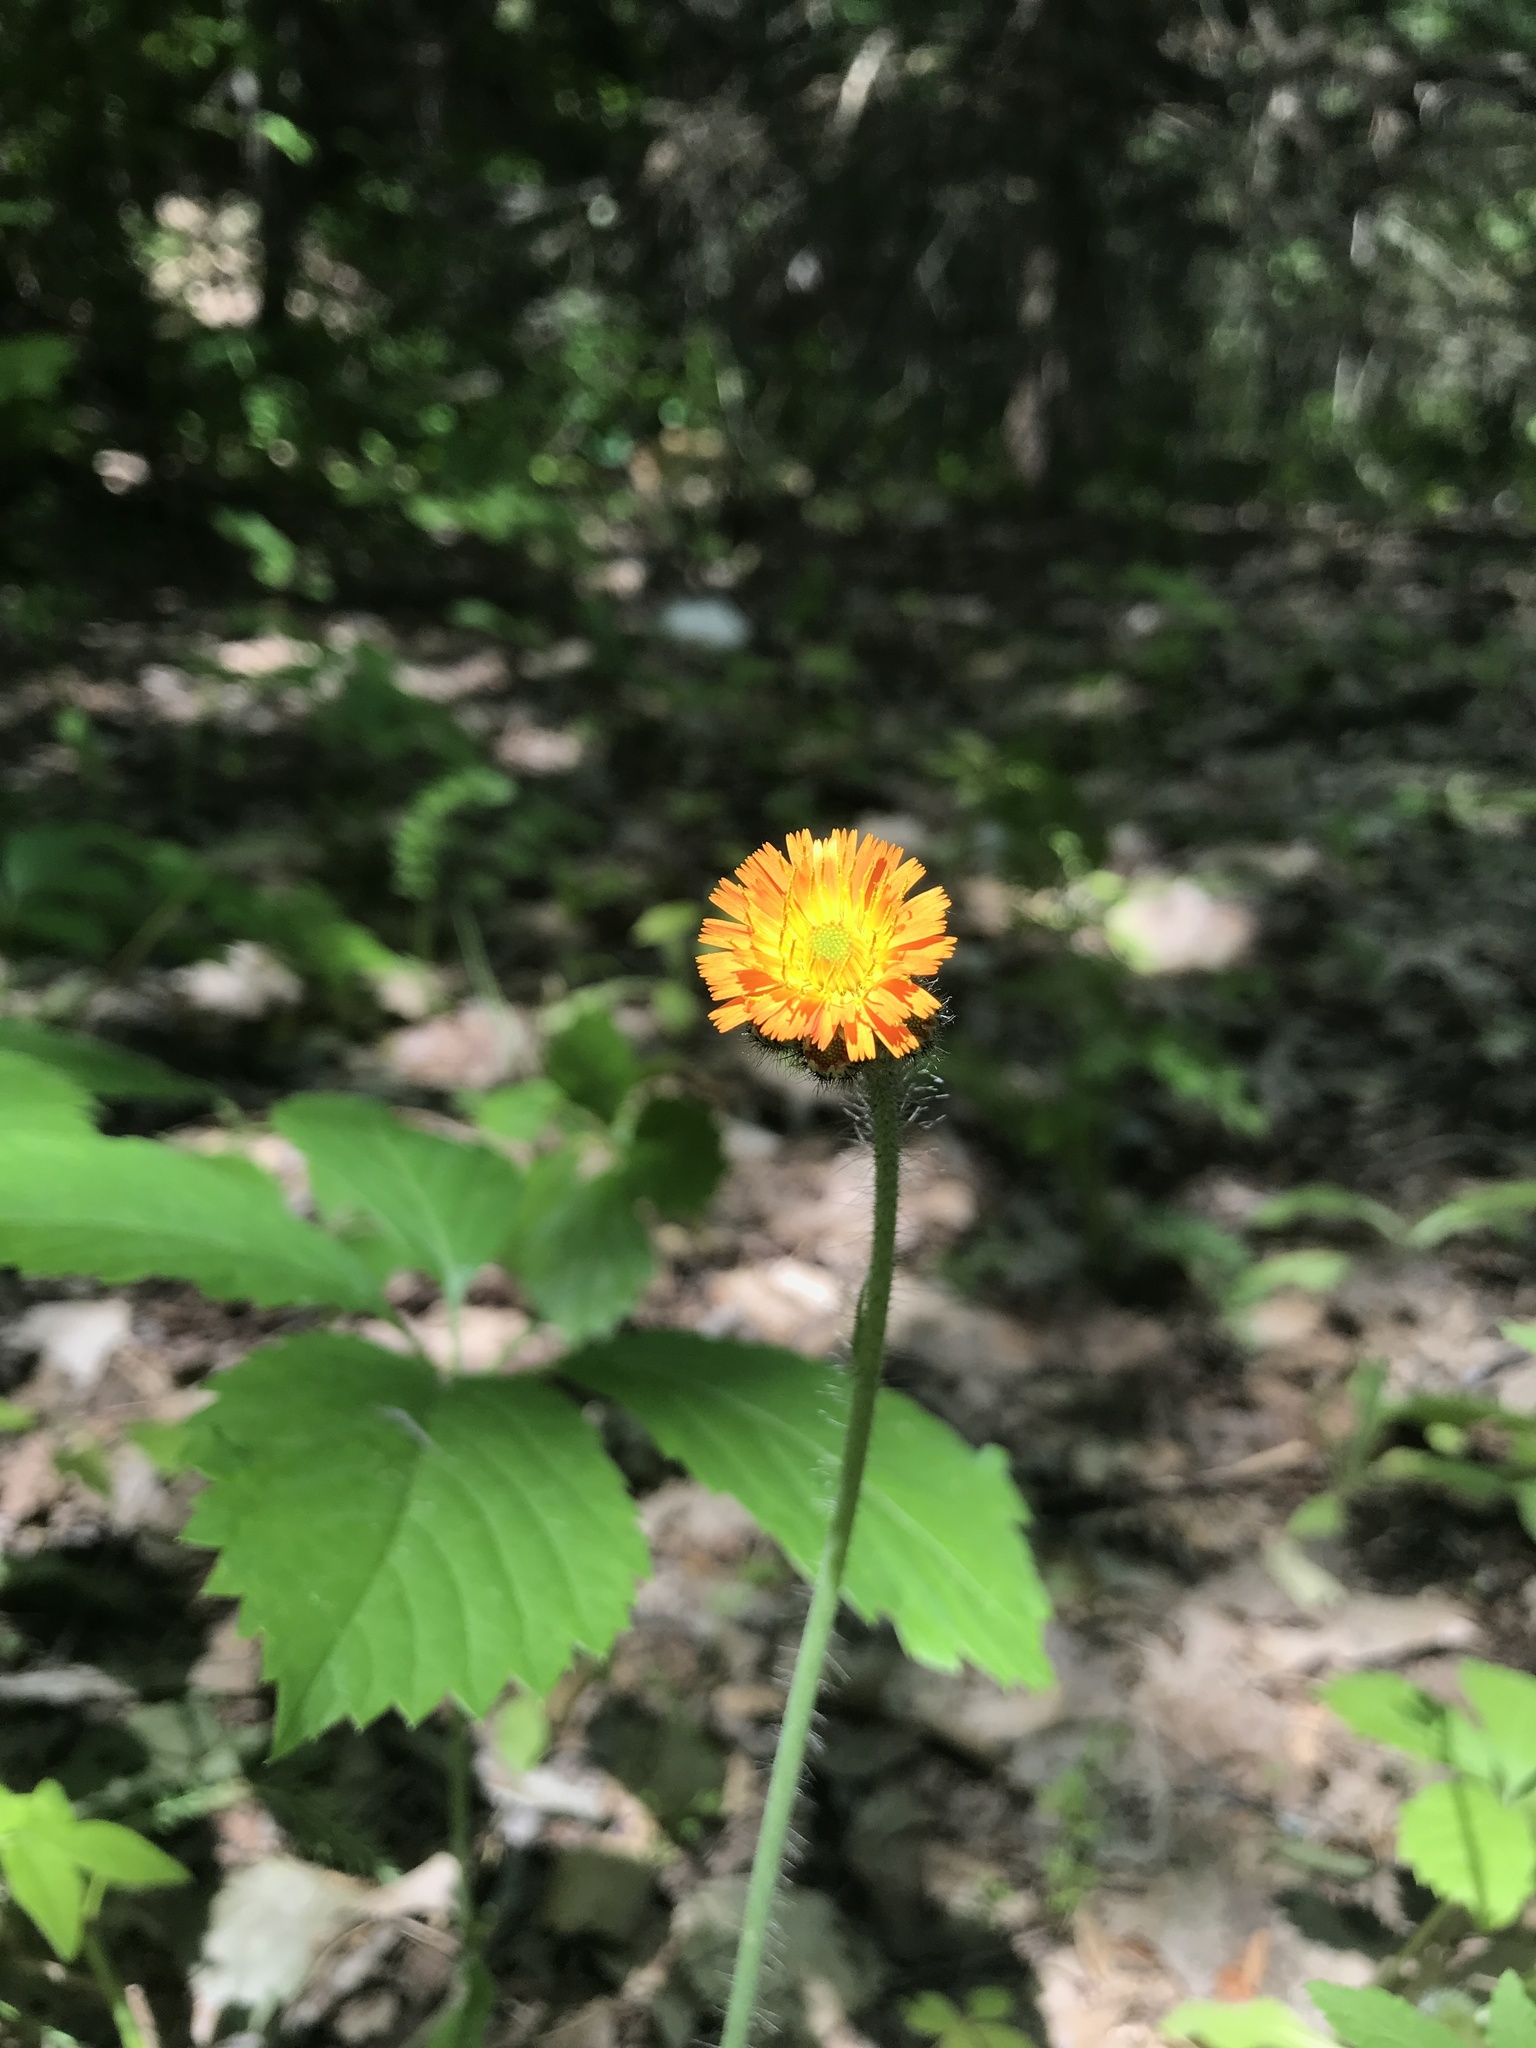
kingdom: Plantae
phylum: Tracheophyta
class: Magnoliopsida
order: Asterales
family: Asteraceae
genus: Pilosella
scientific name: Pilosella aurantiaca
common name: Fox-and-cubs
